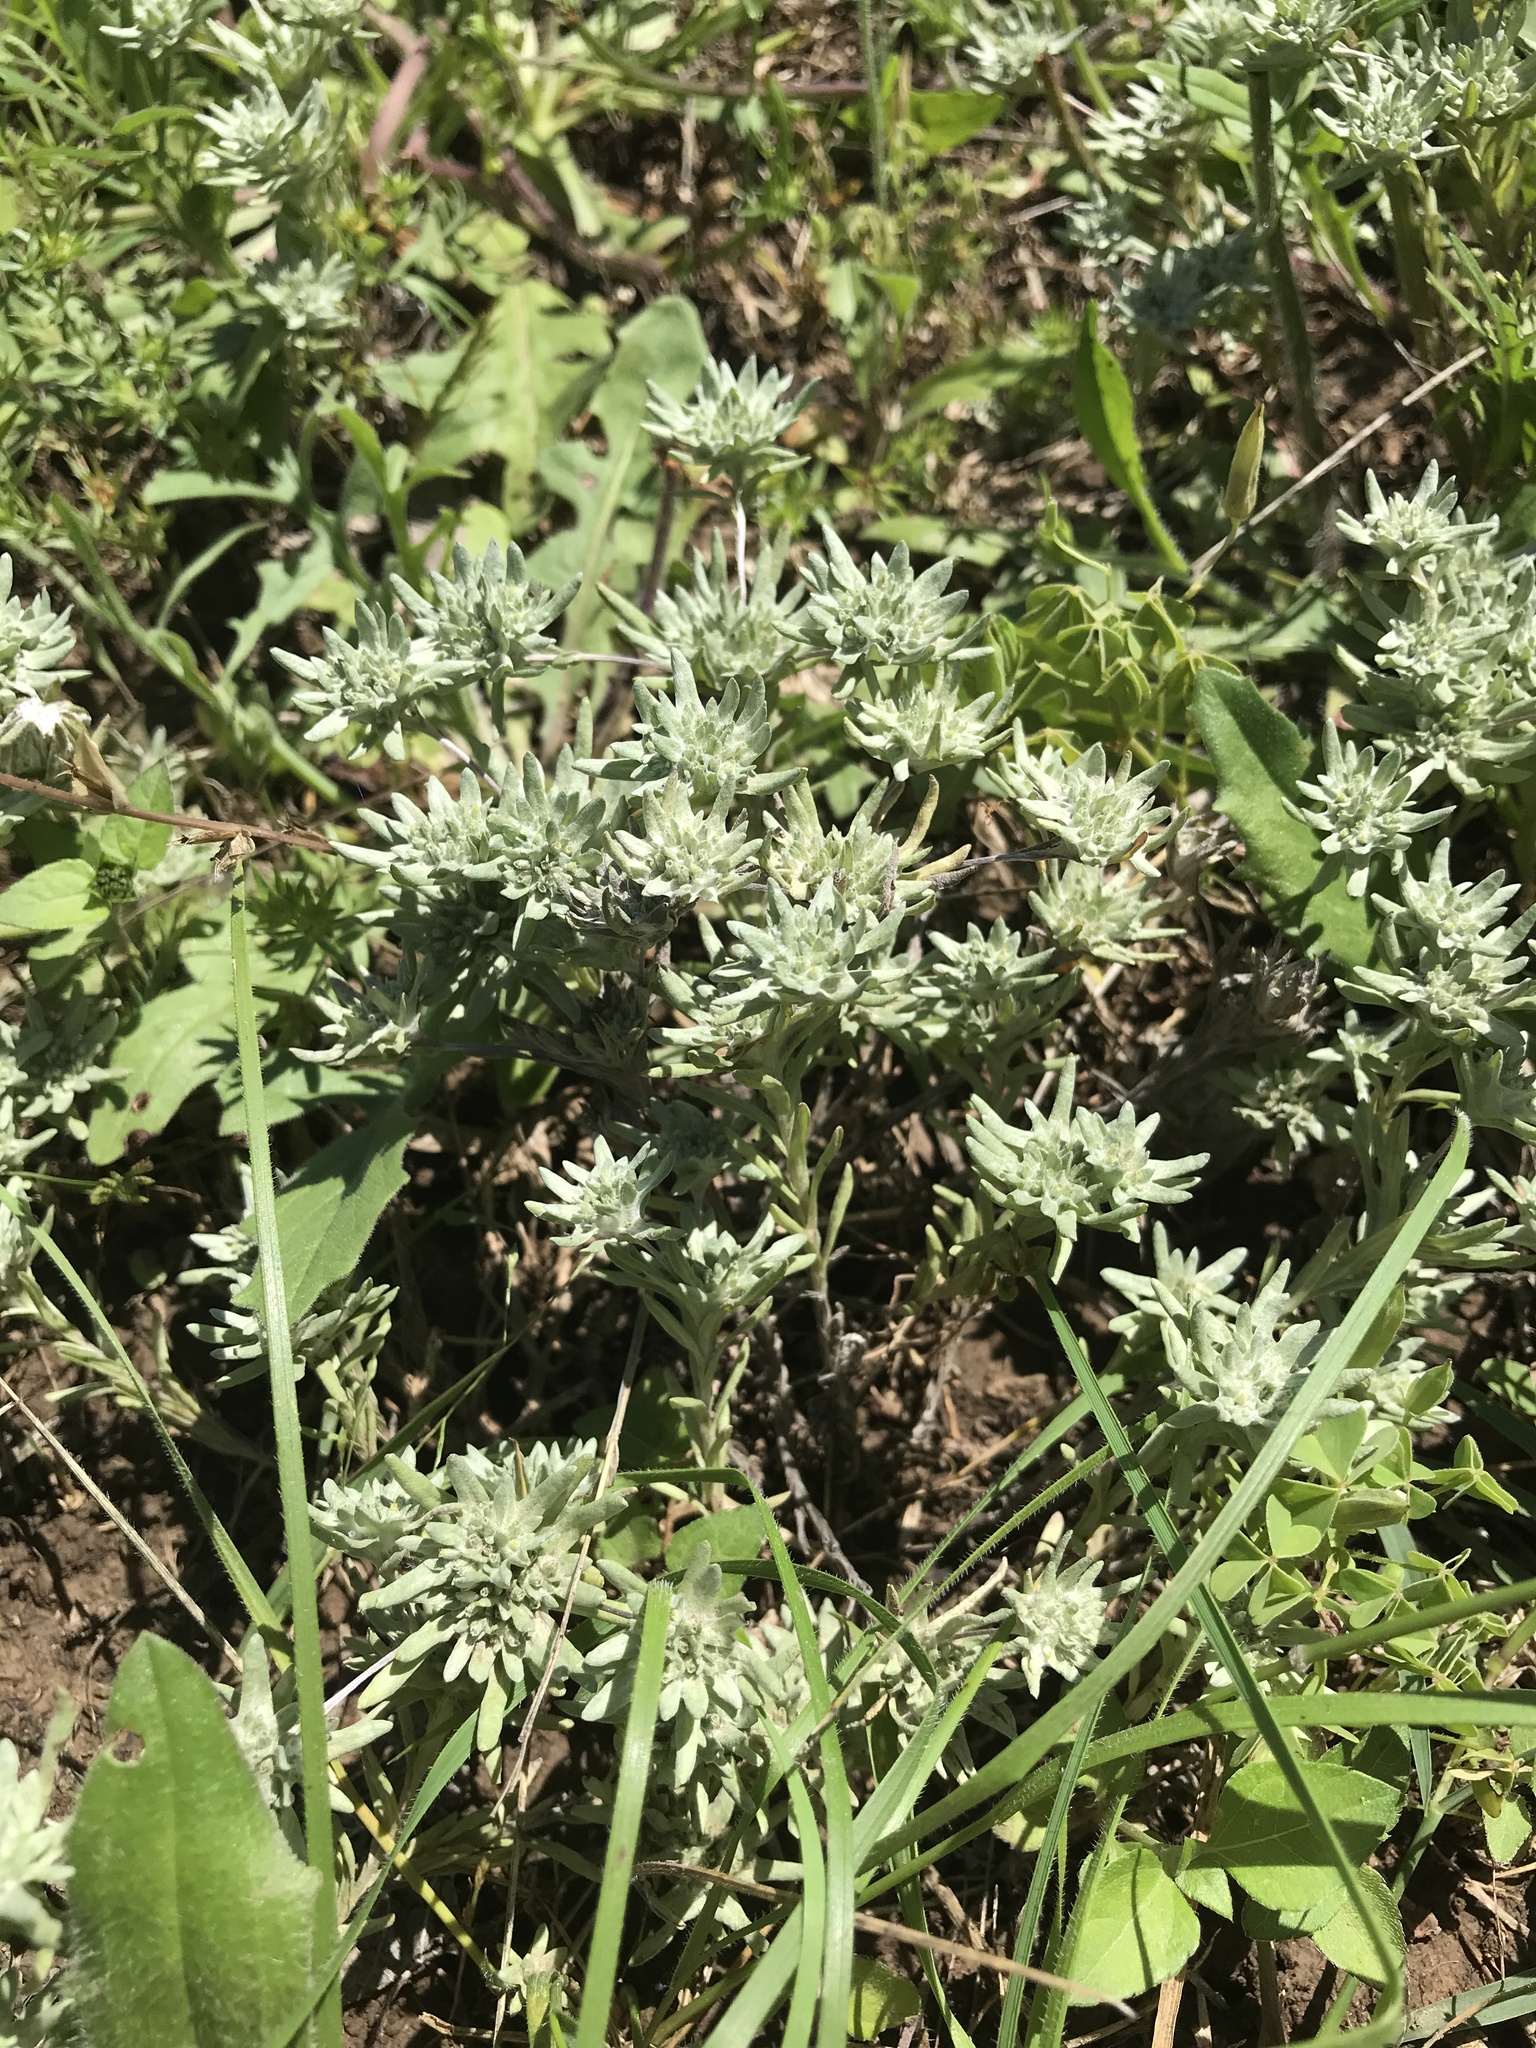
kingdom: Plantae
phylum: Tracheophyta
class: Magnoliopsida
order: Asterales
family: Asteraceae
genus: Diaperia
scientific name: Diaperia prolifera
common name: Big-head rabbit-tobacco
